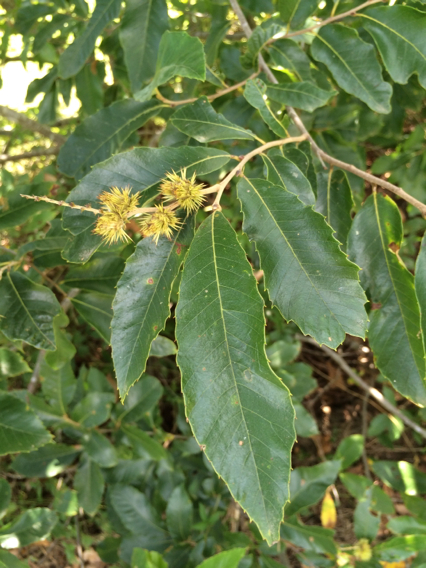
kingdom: Plantae
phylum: Tracheophyta
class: Magnoliopsida
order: Fagales
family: Fagaceae
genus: Castanea
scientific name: Castanea pumila
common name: Chinkapin
